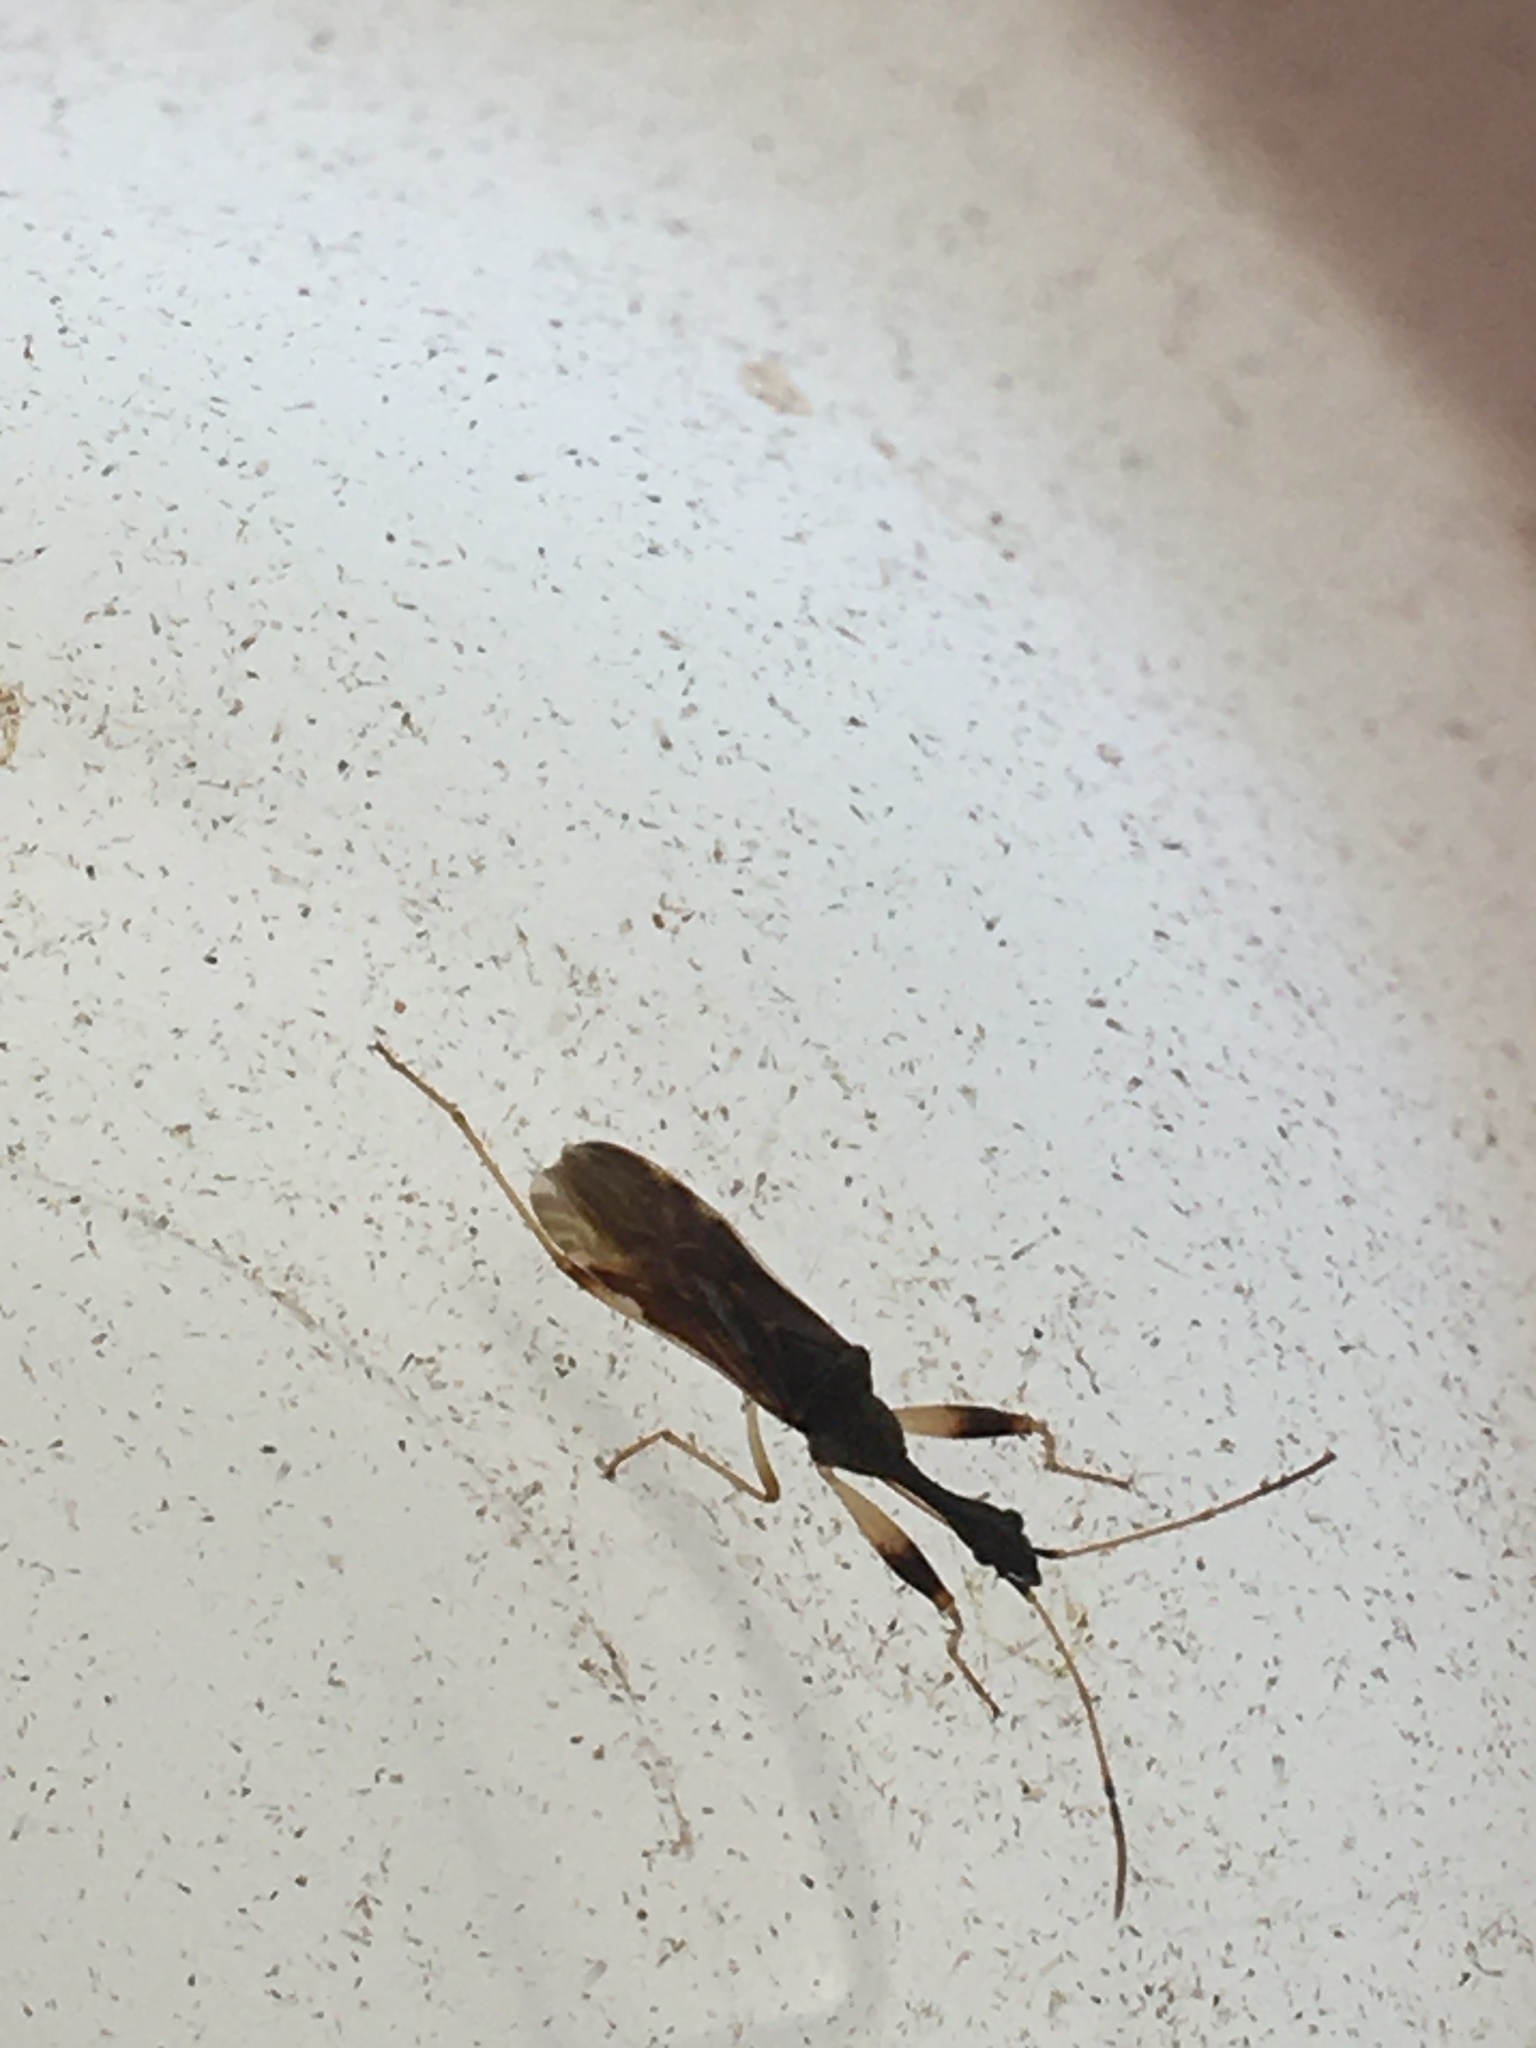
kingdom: Animalia
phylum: Arthropoda
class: Insecta
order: Hemiptera
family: Rhyparochromidae
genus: Myodocha
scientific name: Myodocha serripes
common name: Long-necked seed bug
